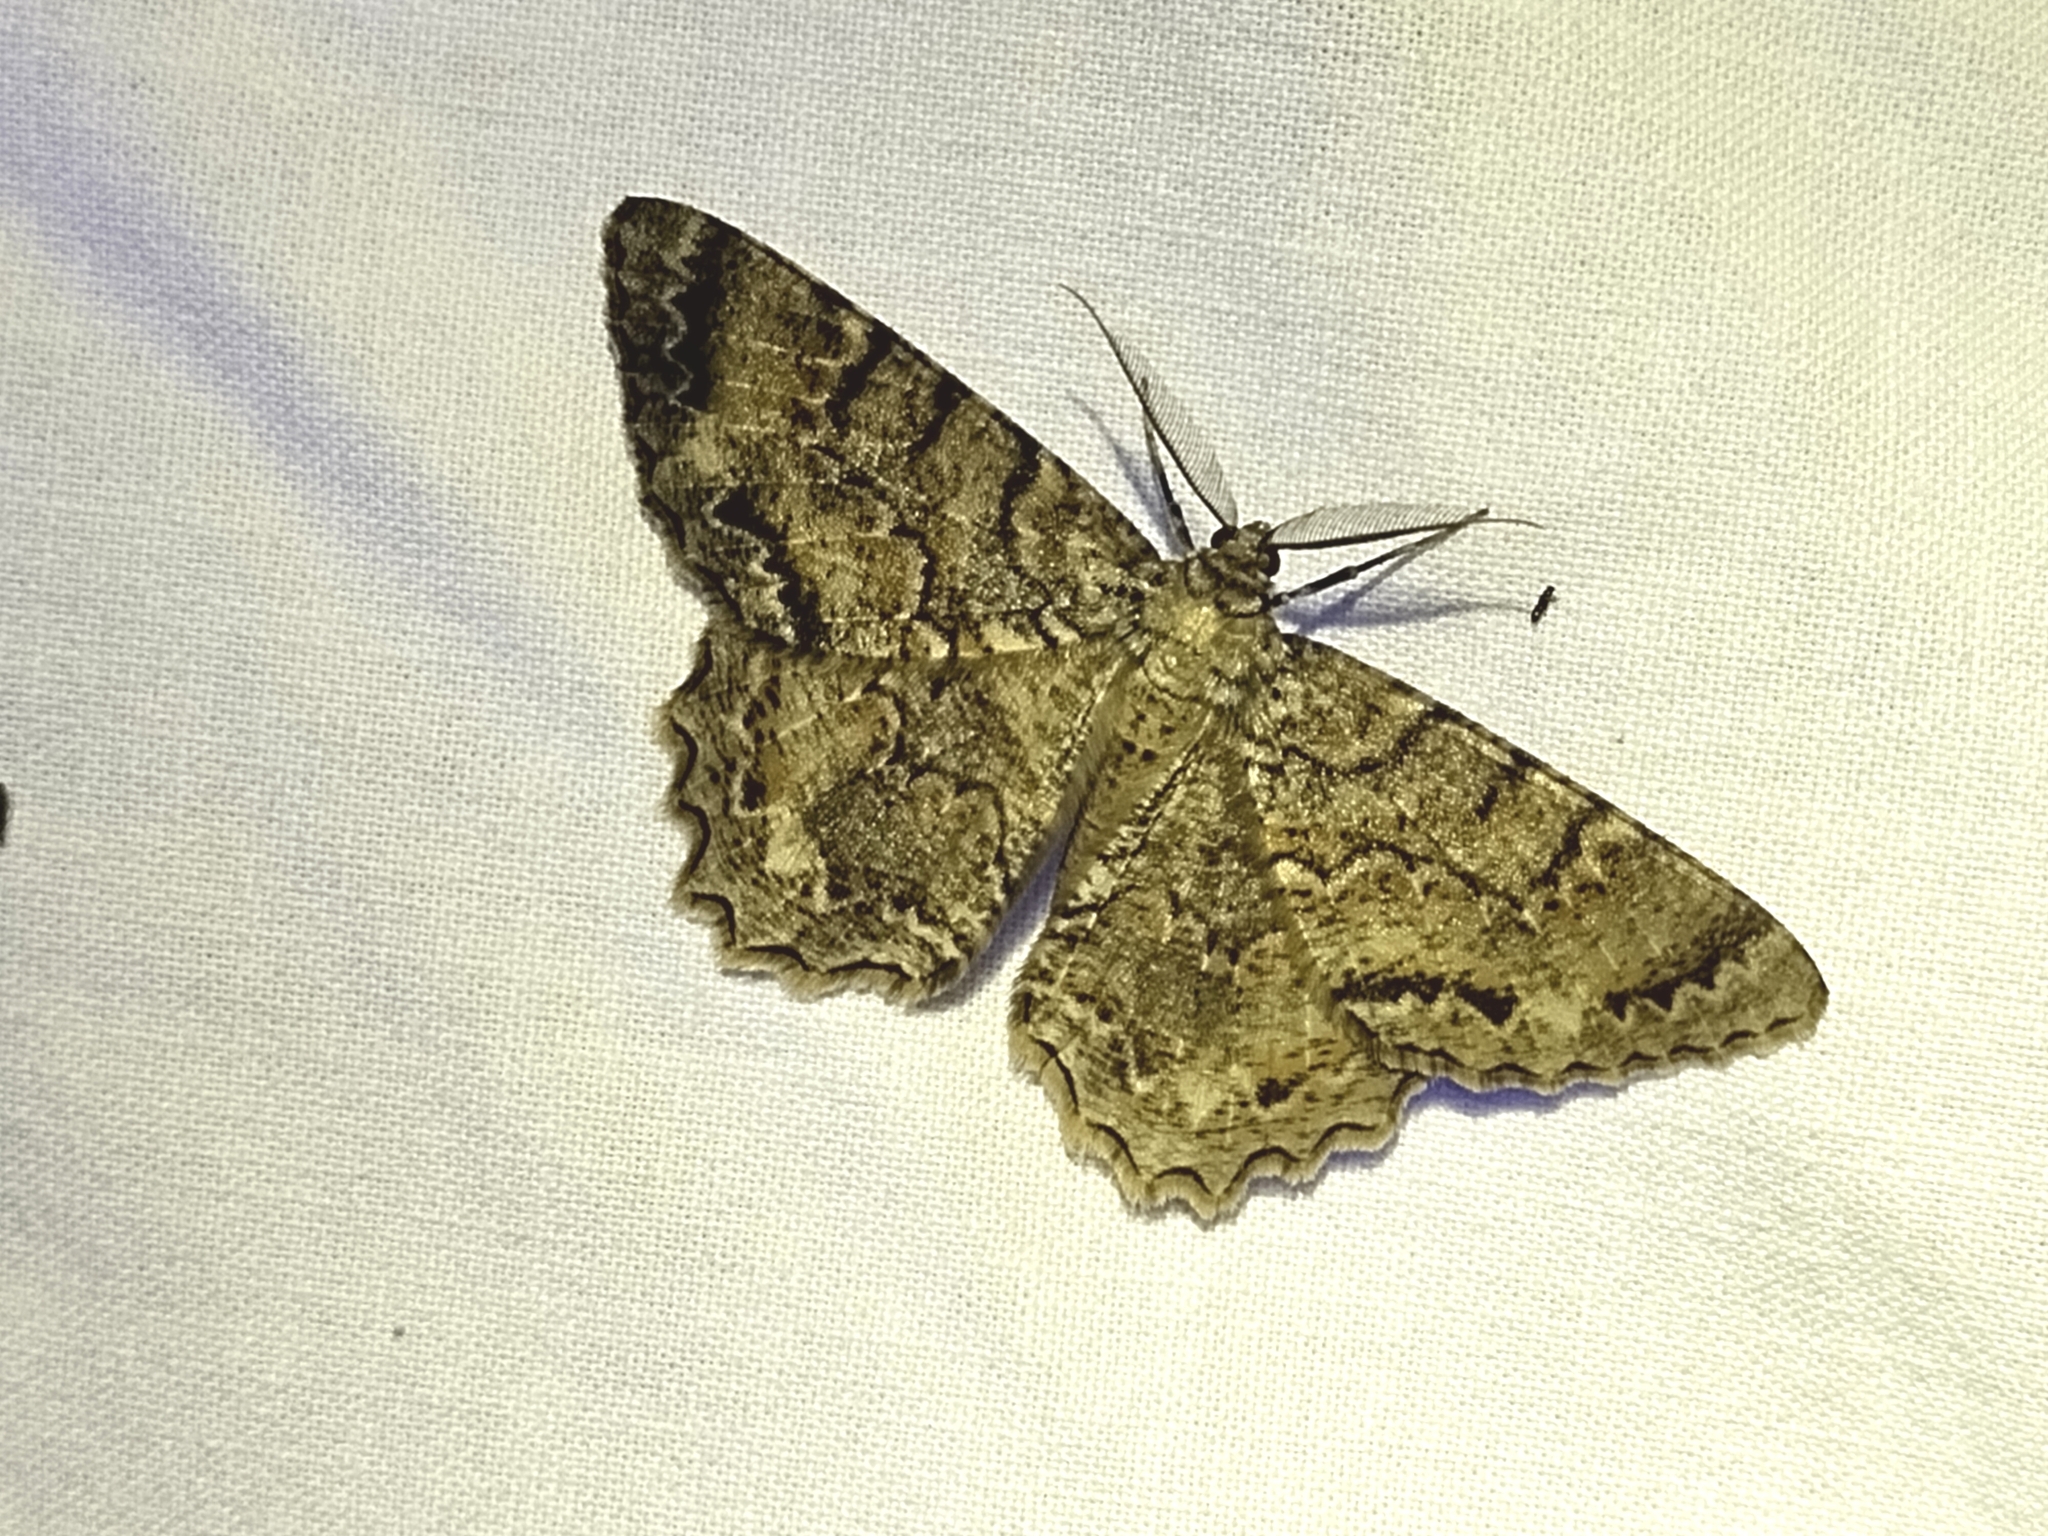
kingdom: Animalia
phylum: Arthropoda
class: Insecta
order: Lepidoptera
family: Geometridae
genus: Epimecis
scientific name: Epimecis hortaria
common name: Tulip-tree beauty
